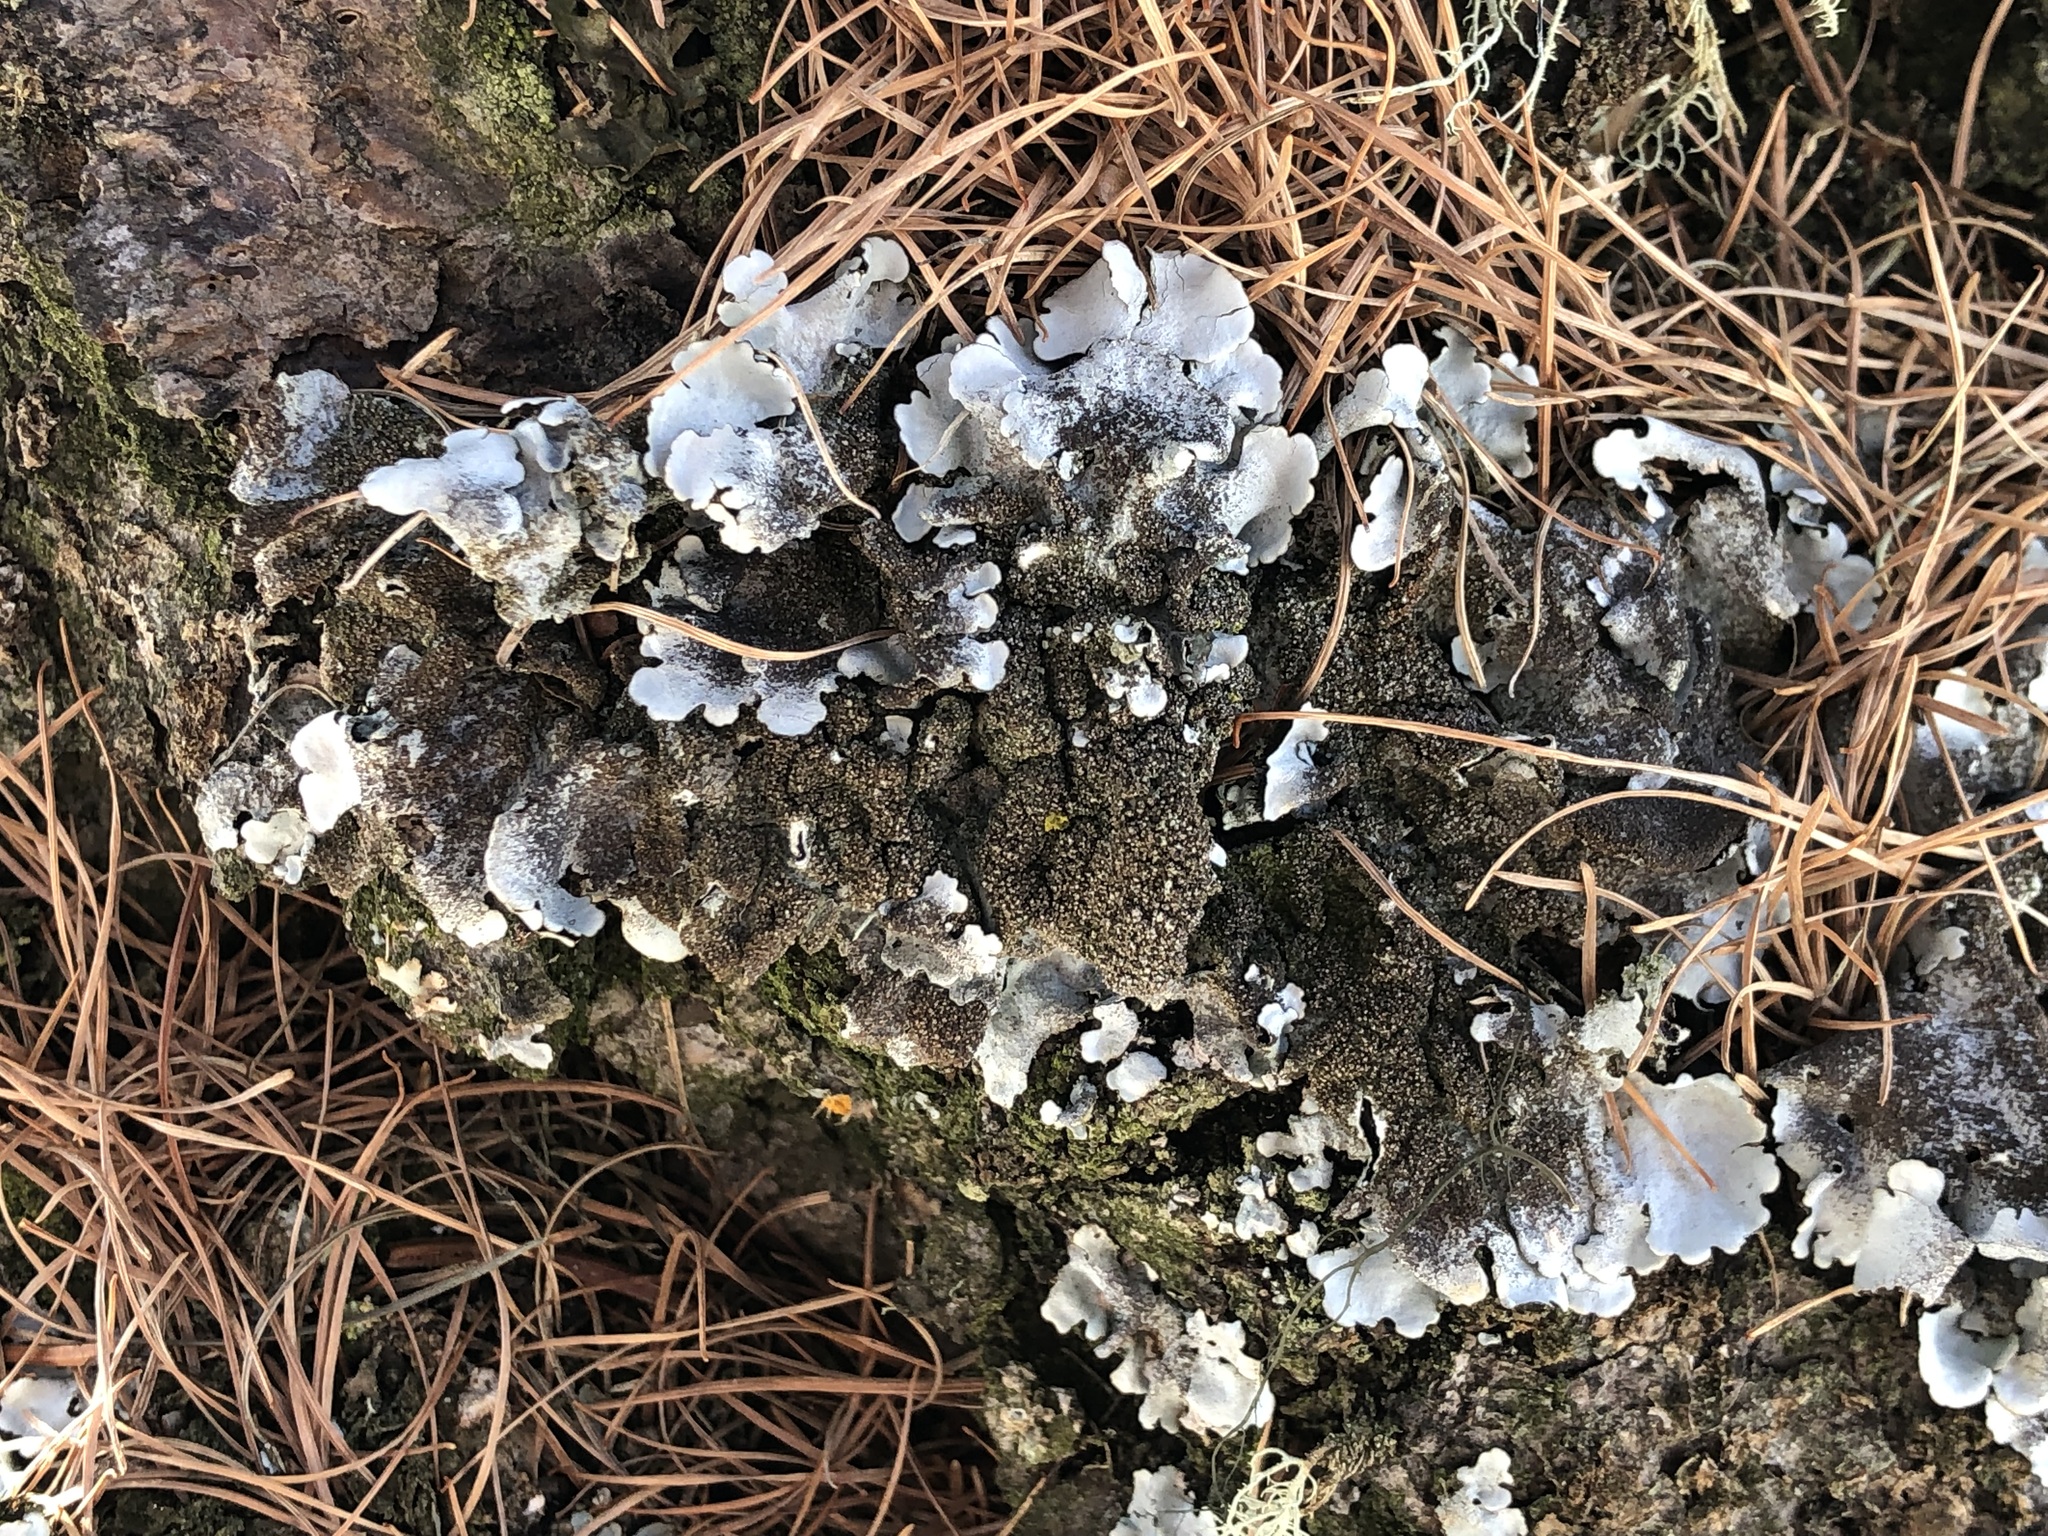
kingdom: Fungi
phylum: Ascomycota
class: Lecanoromycetes
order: Lecanorales
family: Parmeliaceae
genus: Parmelina
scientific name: Parmelina tiliacea
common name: Linden shield lichen
